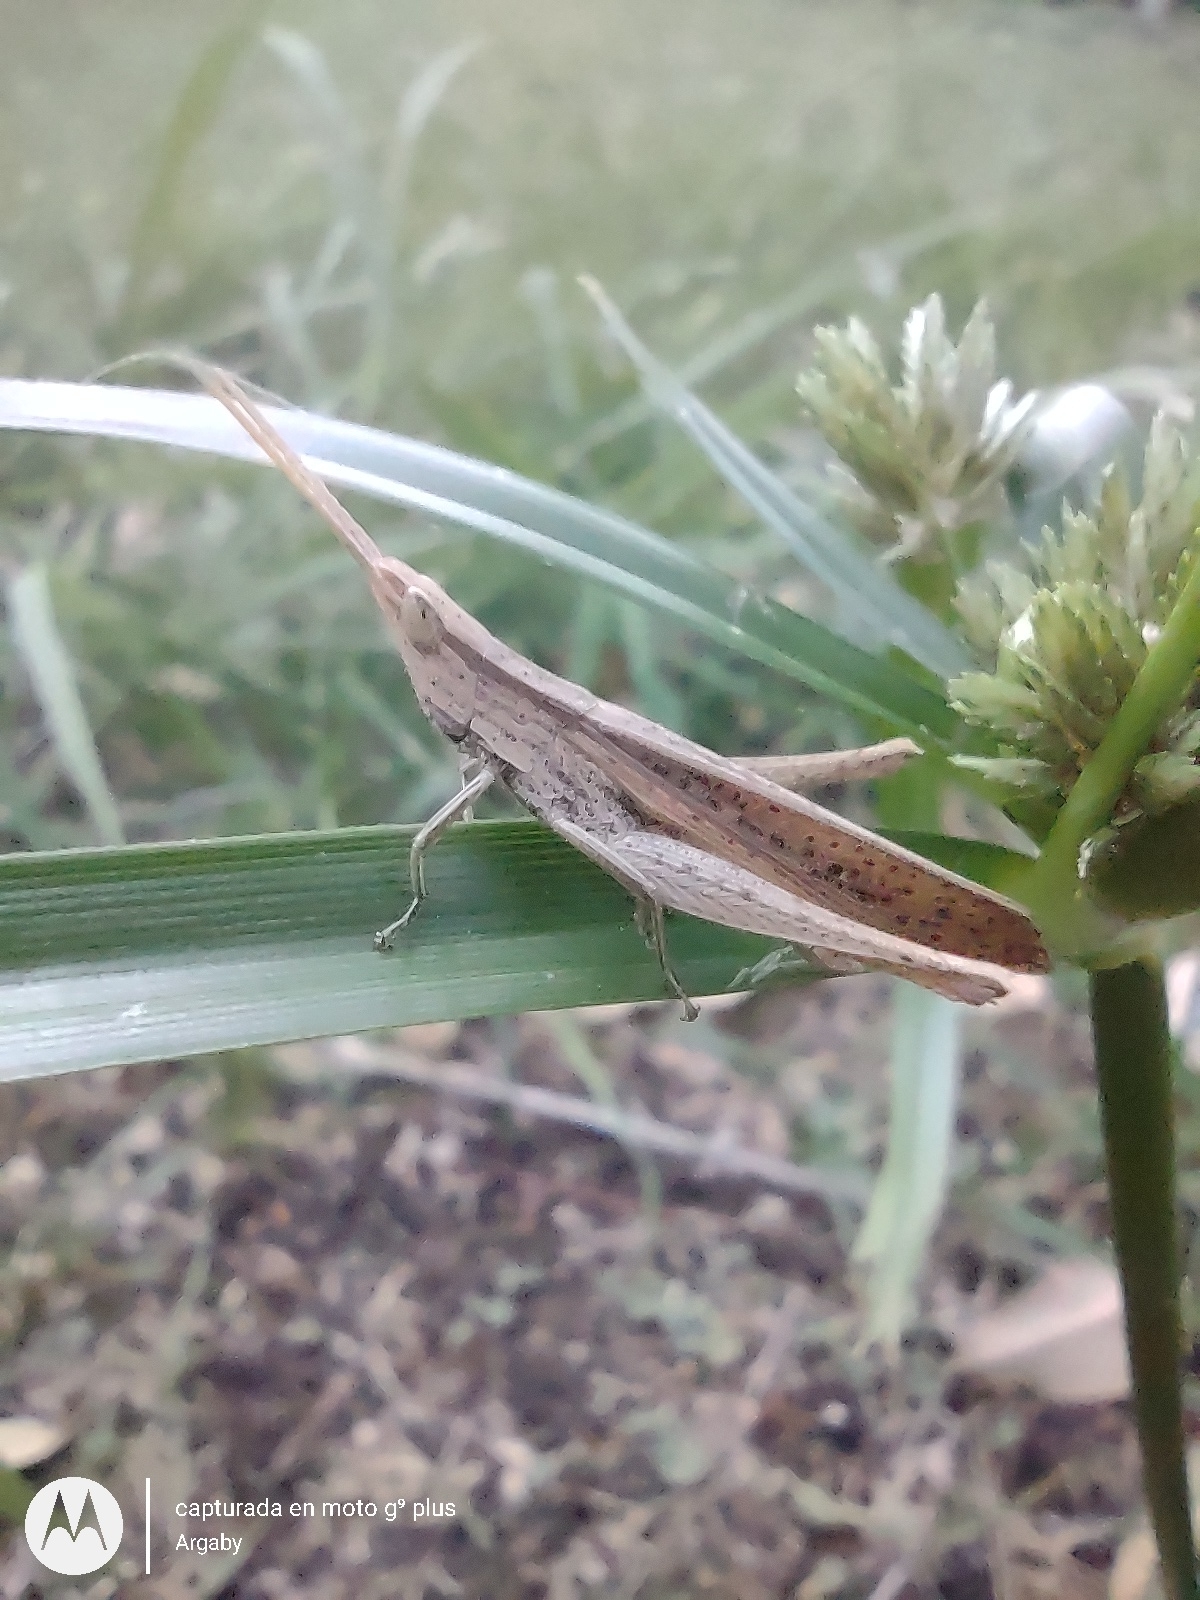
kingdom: Animalia
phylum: Arthropoda
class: Insecta
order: Orthoptera
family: Acrididae
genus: Allotruxalis
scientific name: Allotruxalis gracilis
